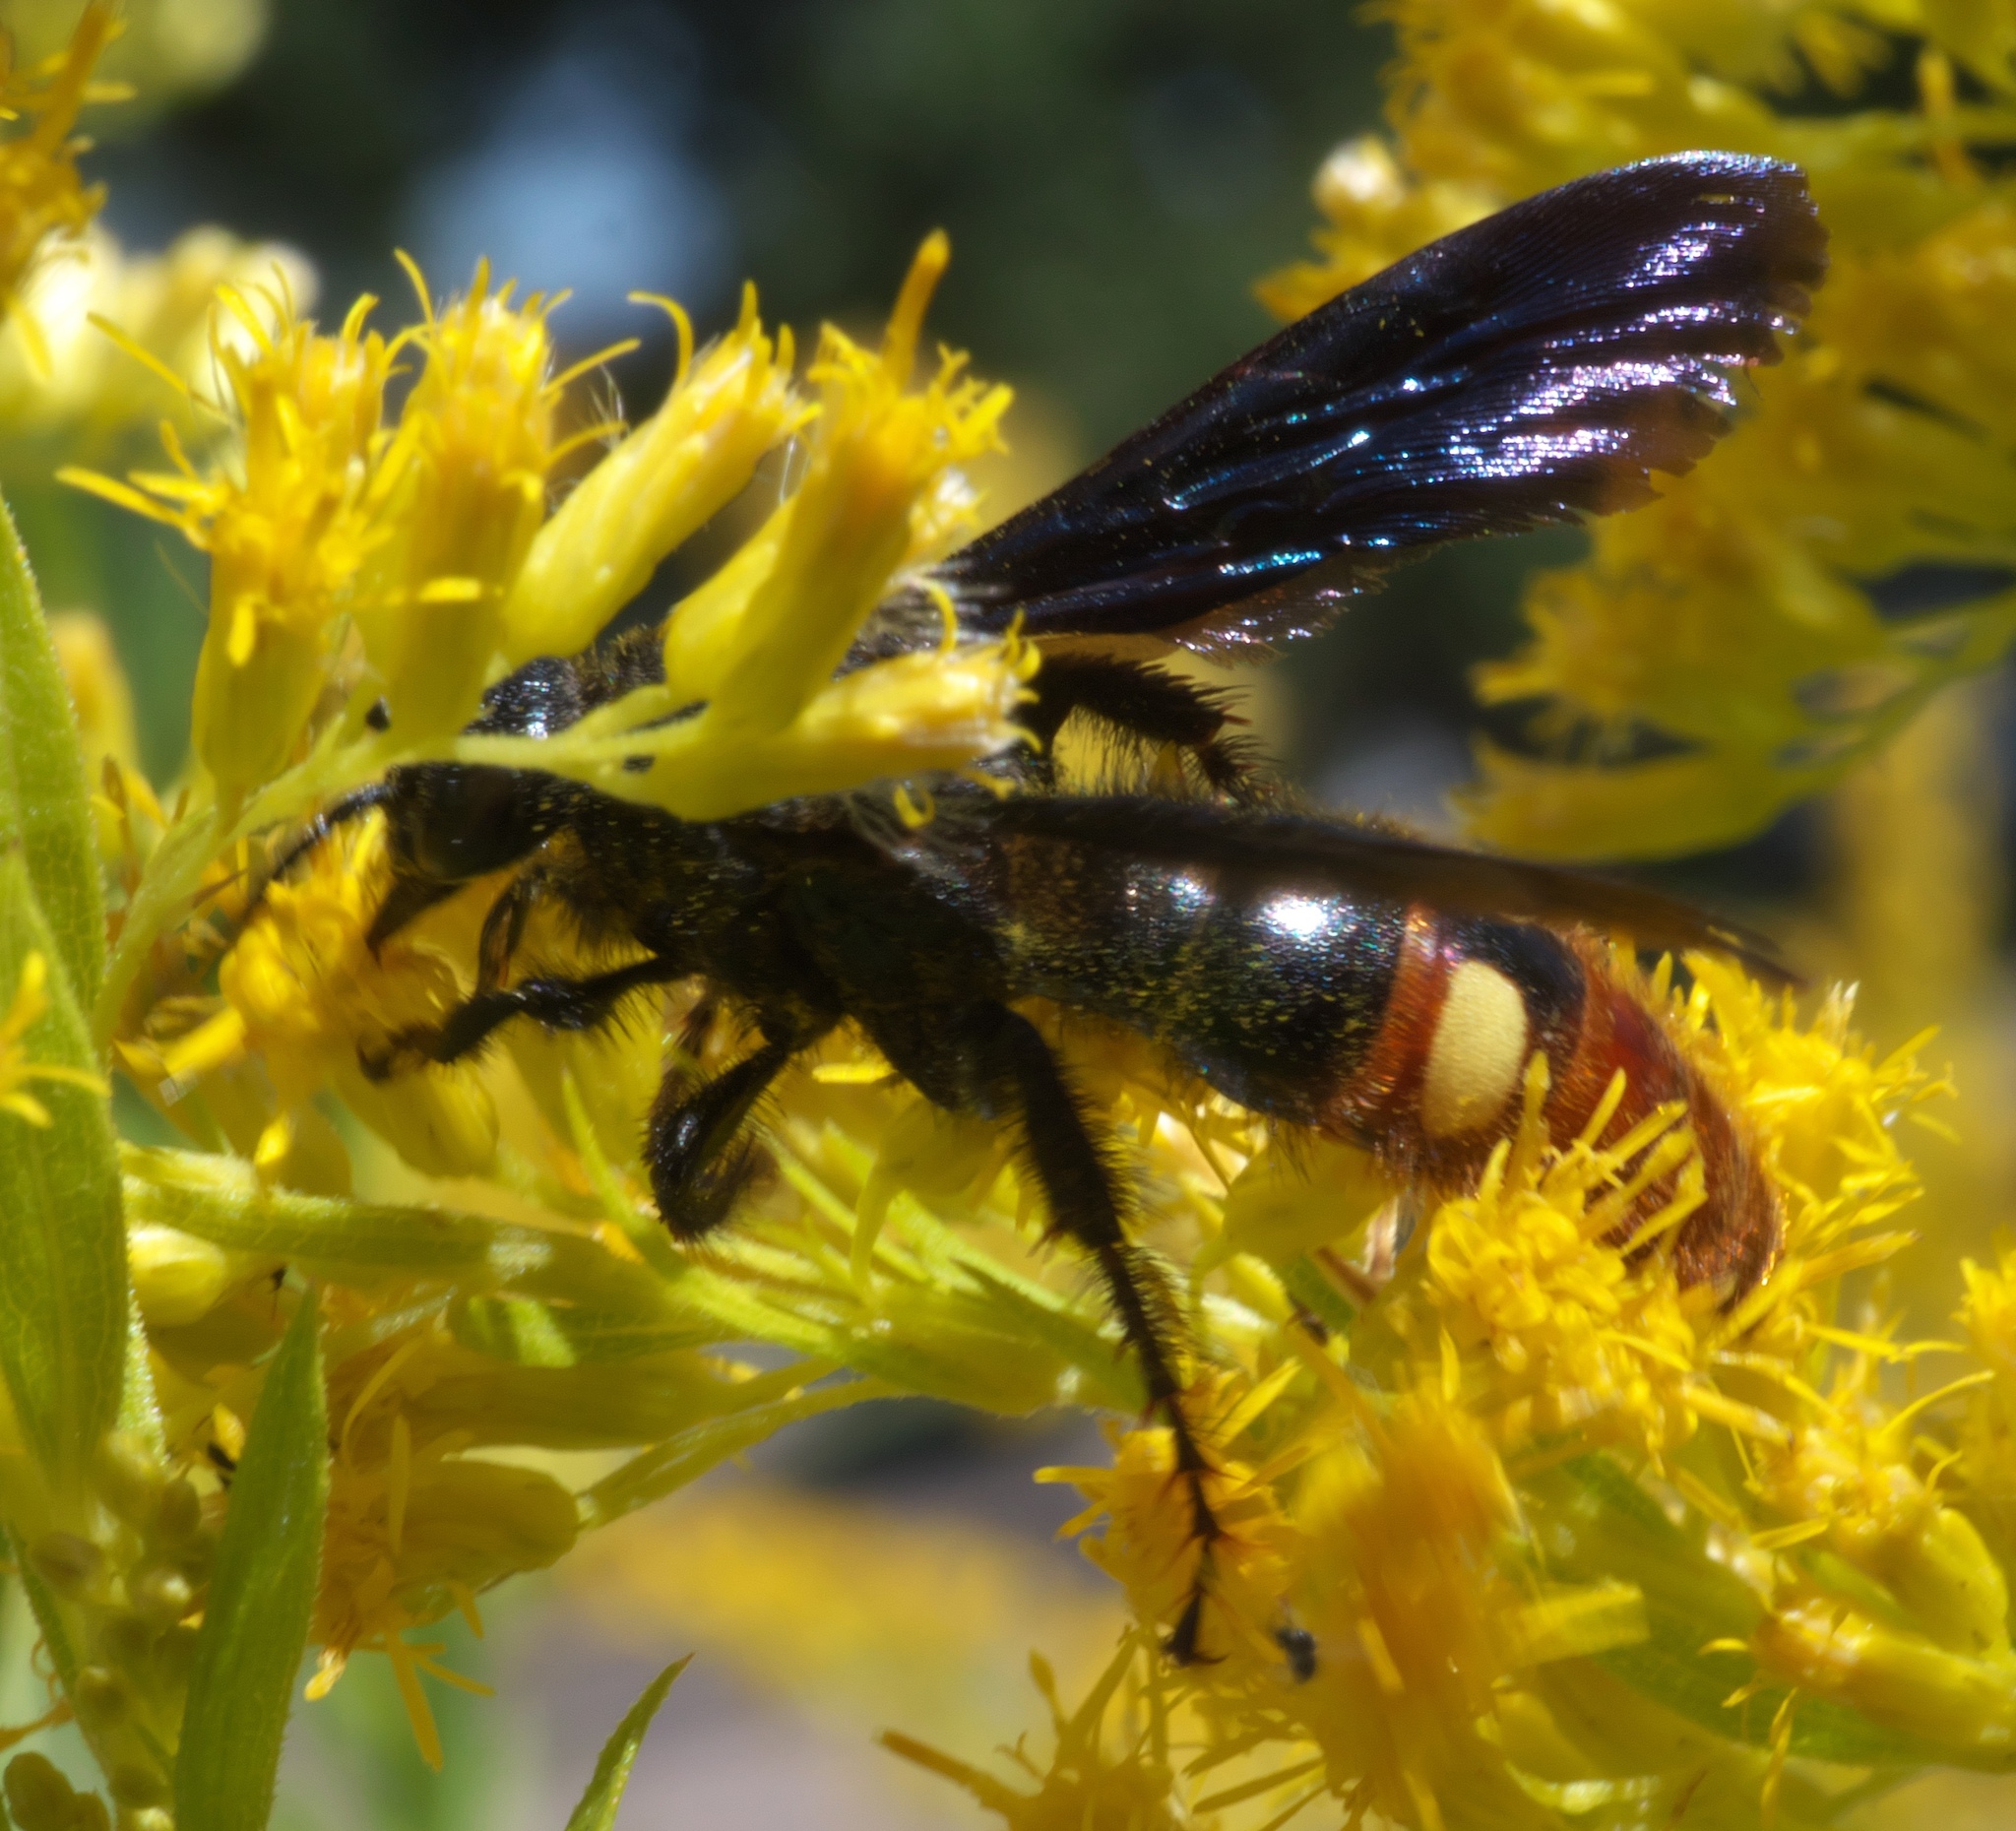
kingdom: Animalia
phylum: Arthropoda
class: Insecta
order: Hymenoptera
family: Scoliidae
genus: Scolia
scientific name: Scolia dubia
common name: Blue-winged scoliid wasp
